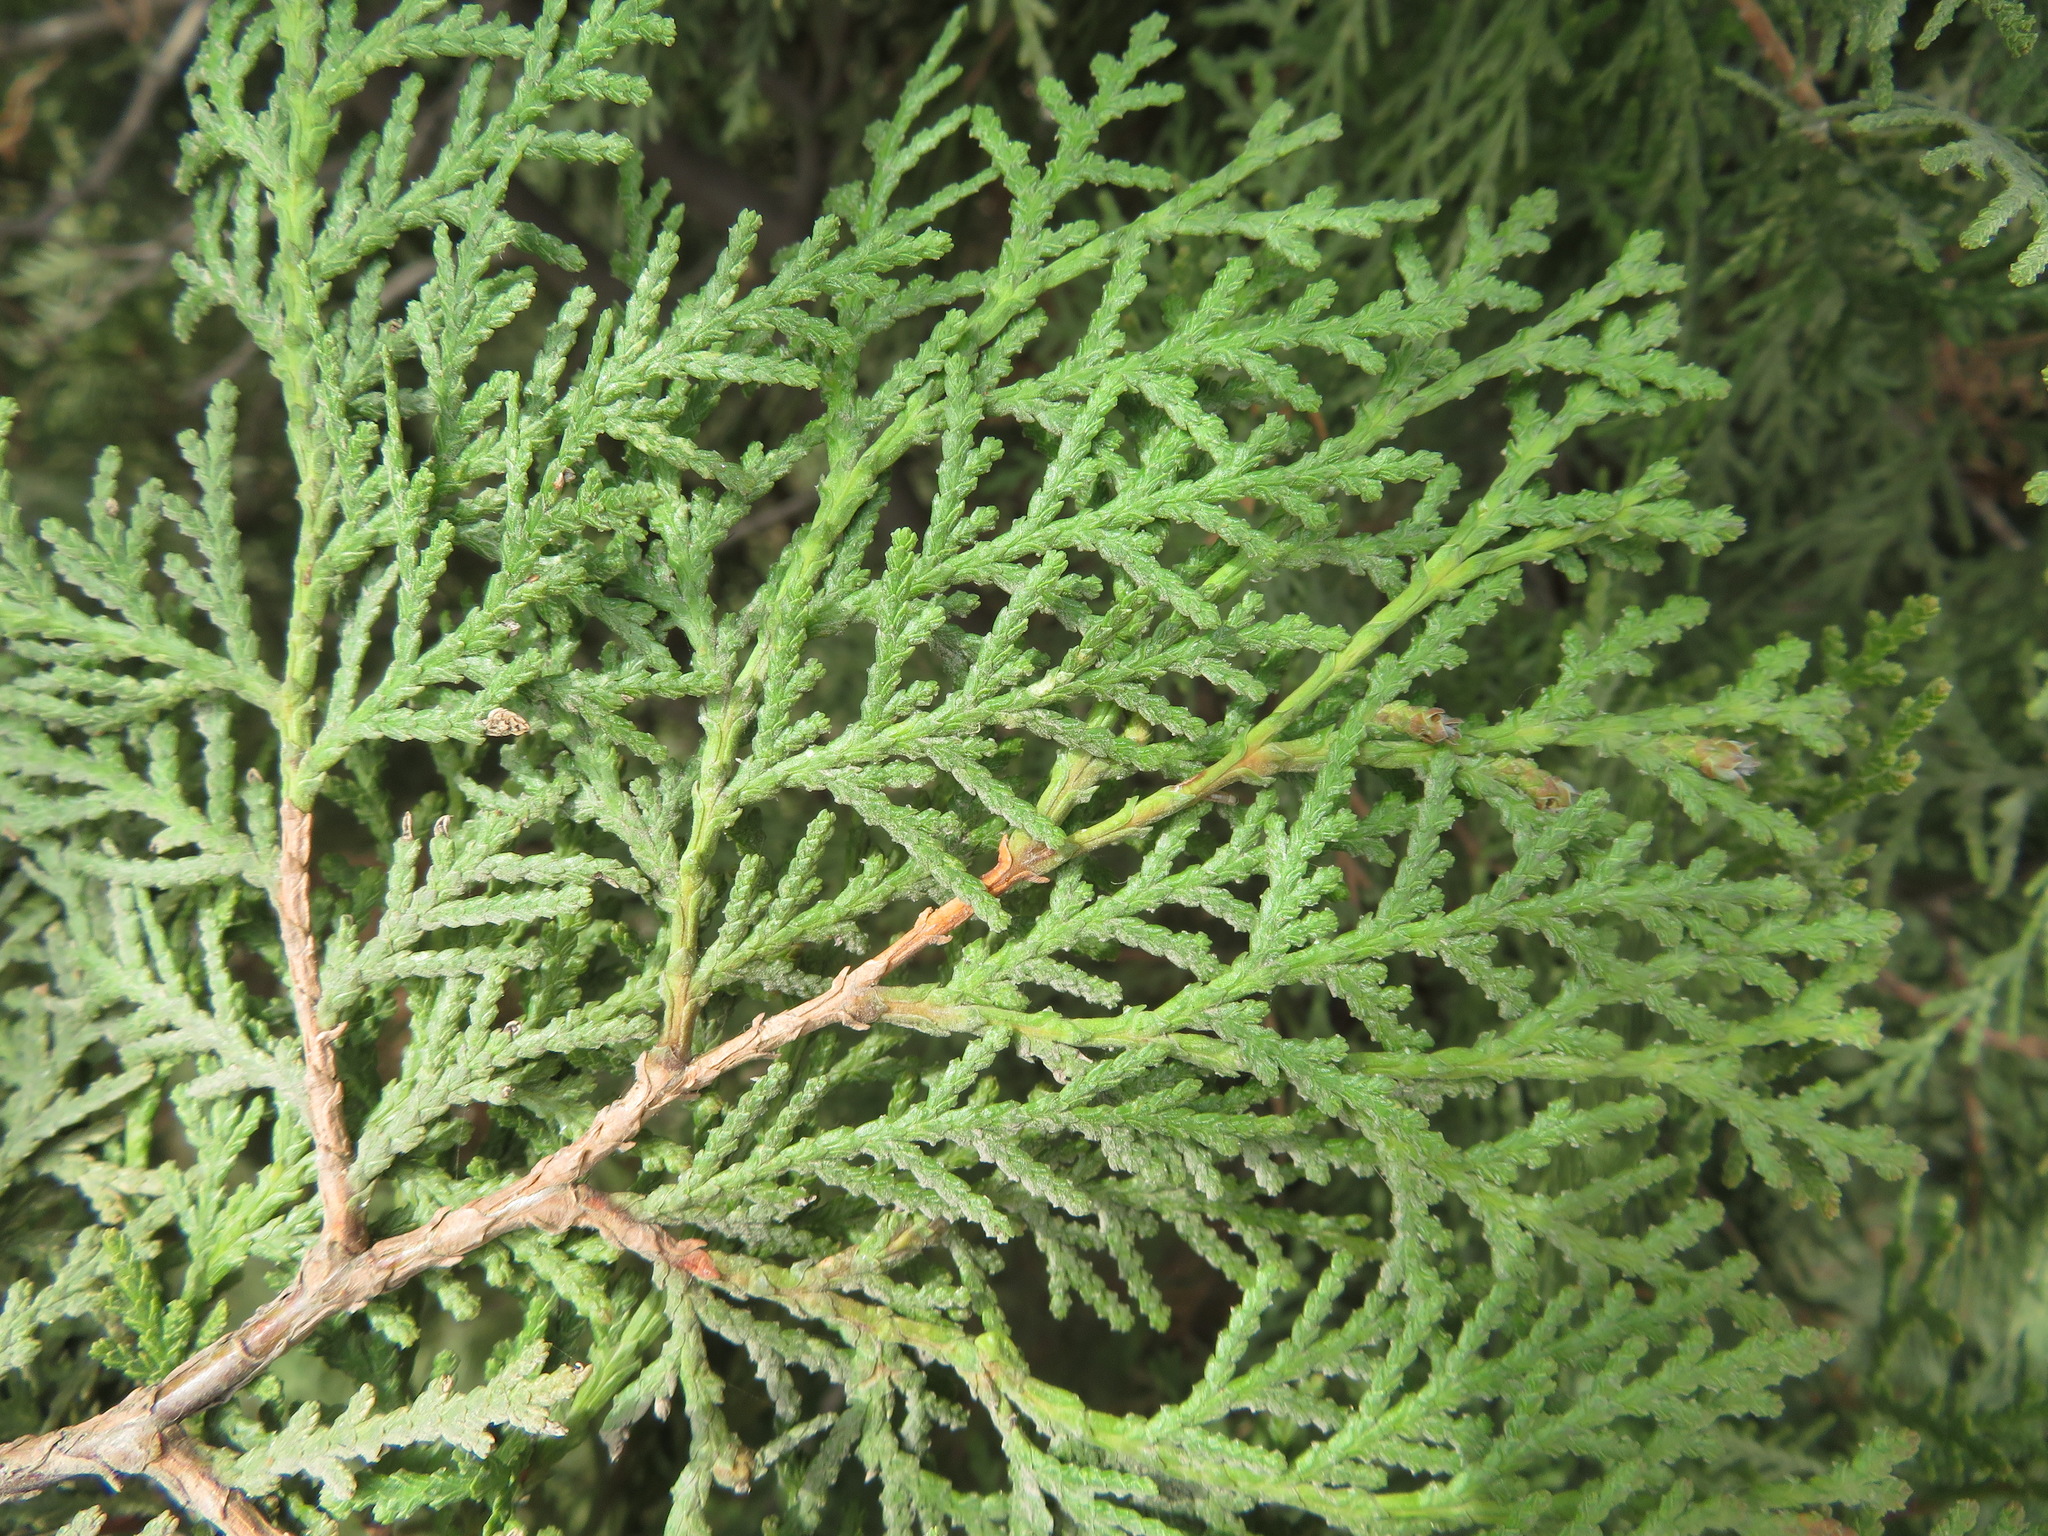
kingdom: Plantae
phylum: Tracheophyta
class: Pinopsida
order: Pinales
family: Cupressaceae
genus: Platycladus
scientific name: Platycladus orientalis
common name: Chinese thuja
